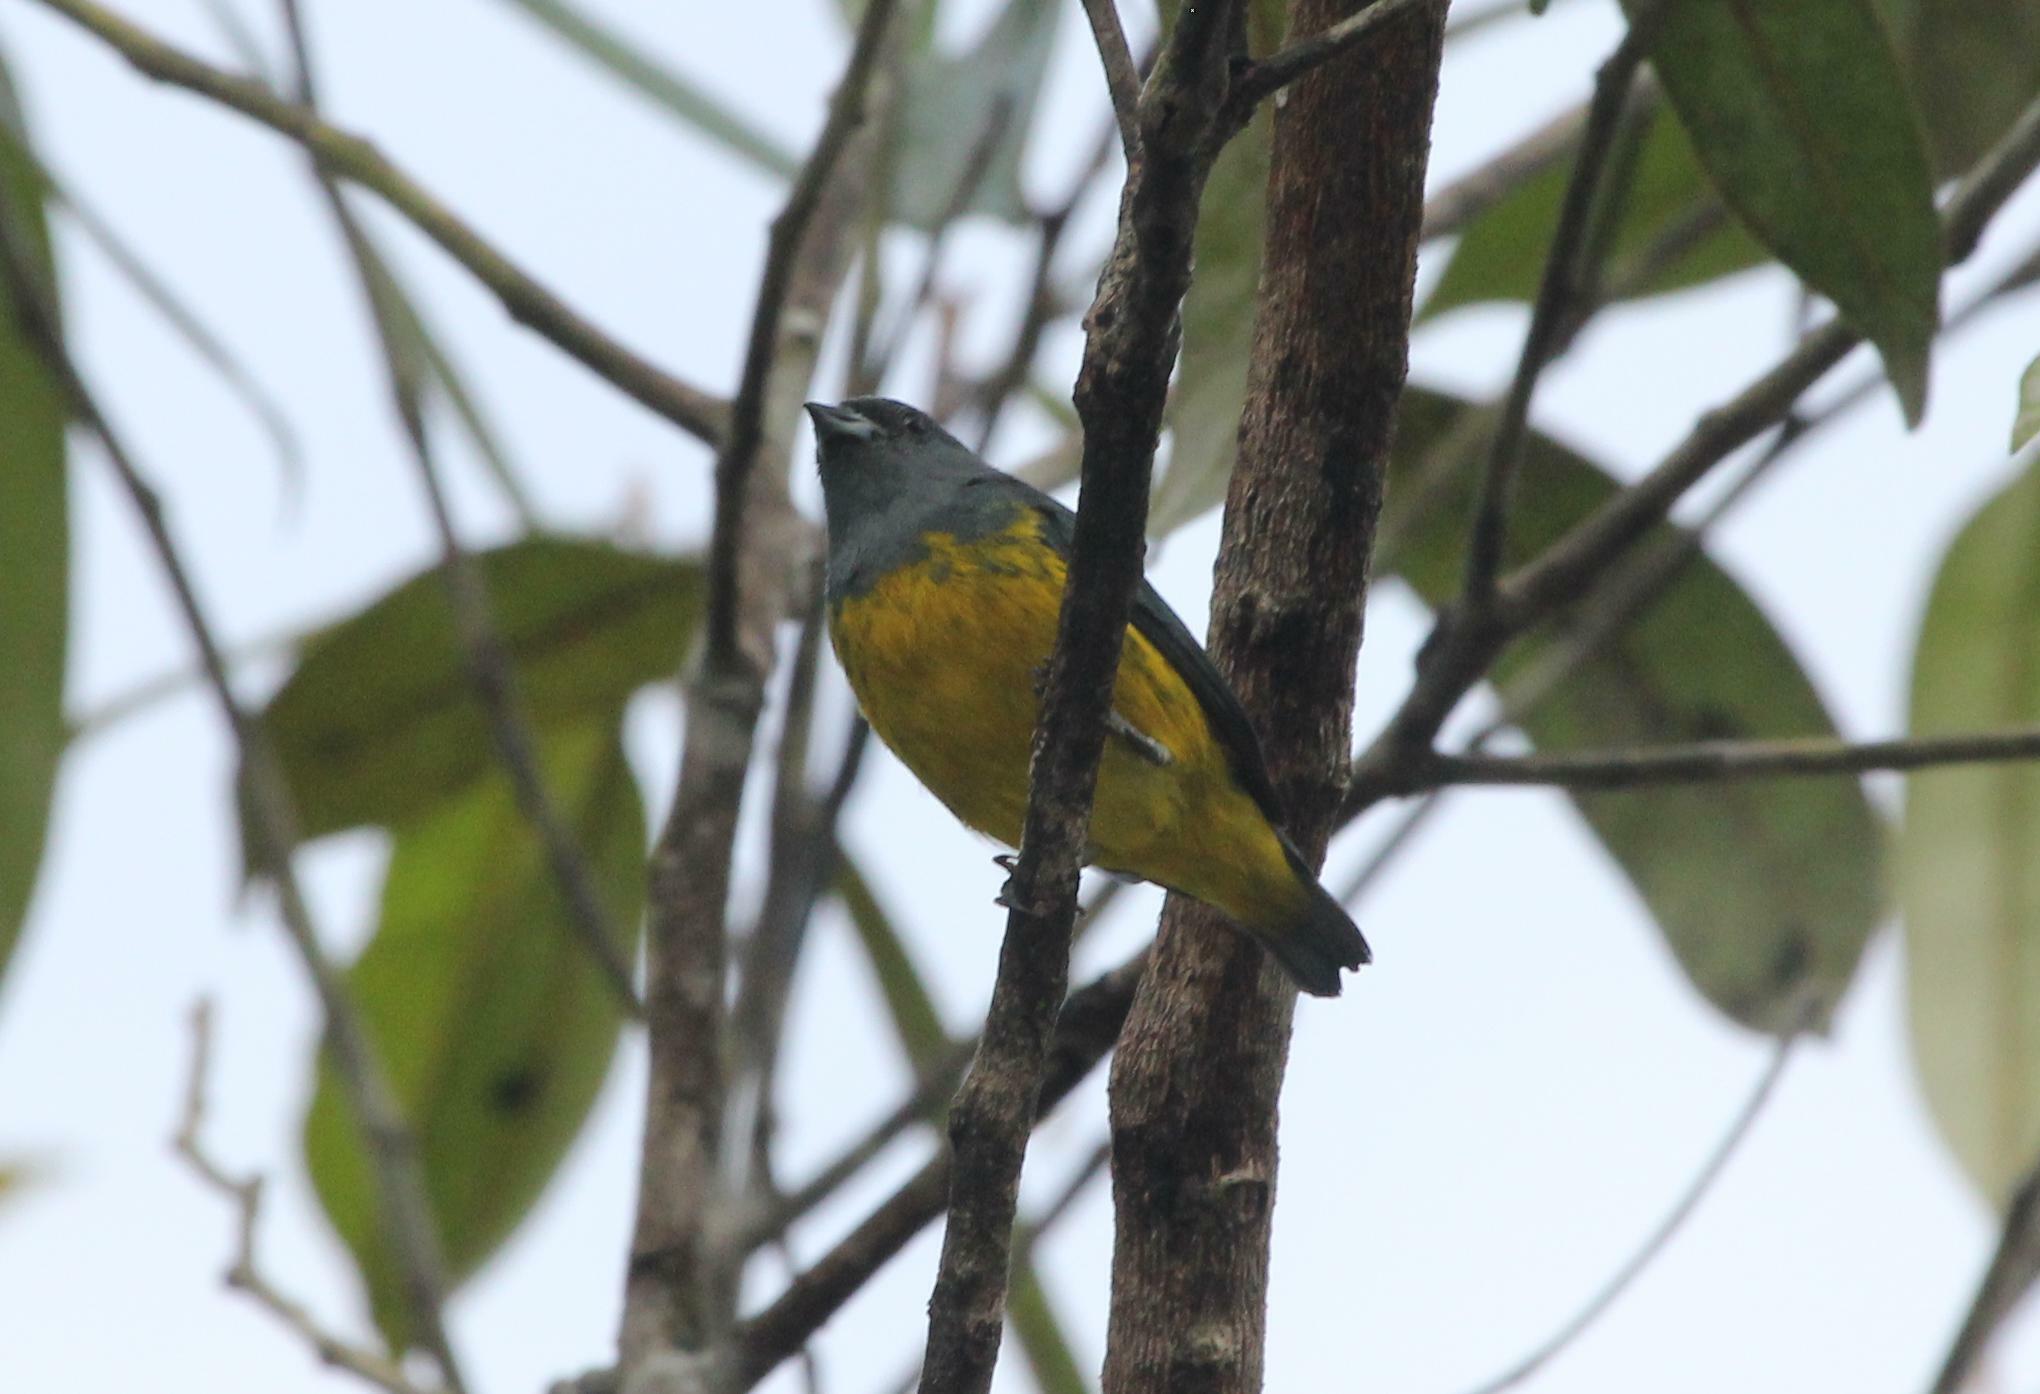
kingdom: Animalia
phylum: Chordata
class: Aves
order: Passeriformes
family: Fringillidae
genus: Euphonia
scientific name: Euphonia plumbea
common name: Plumbeous euphonia
